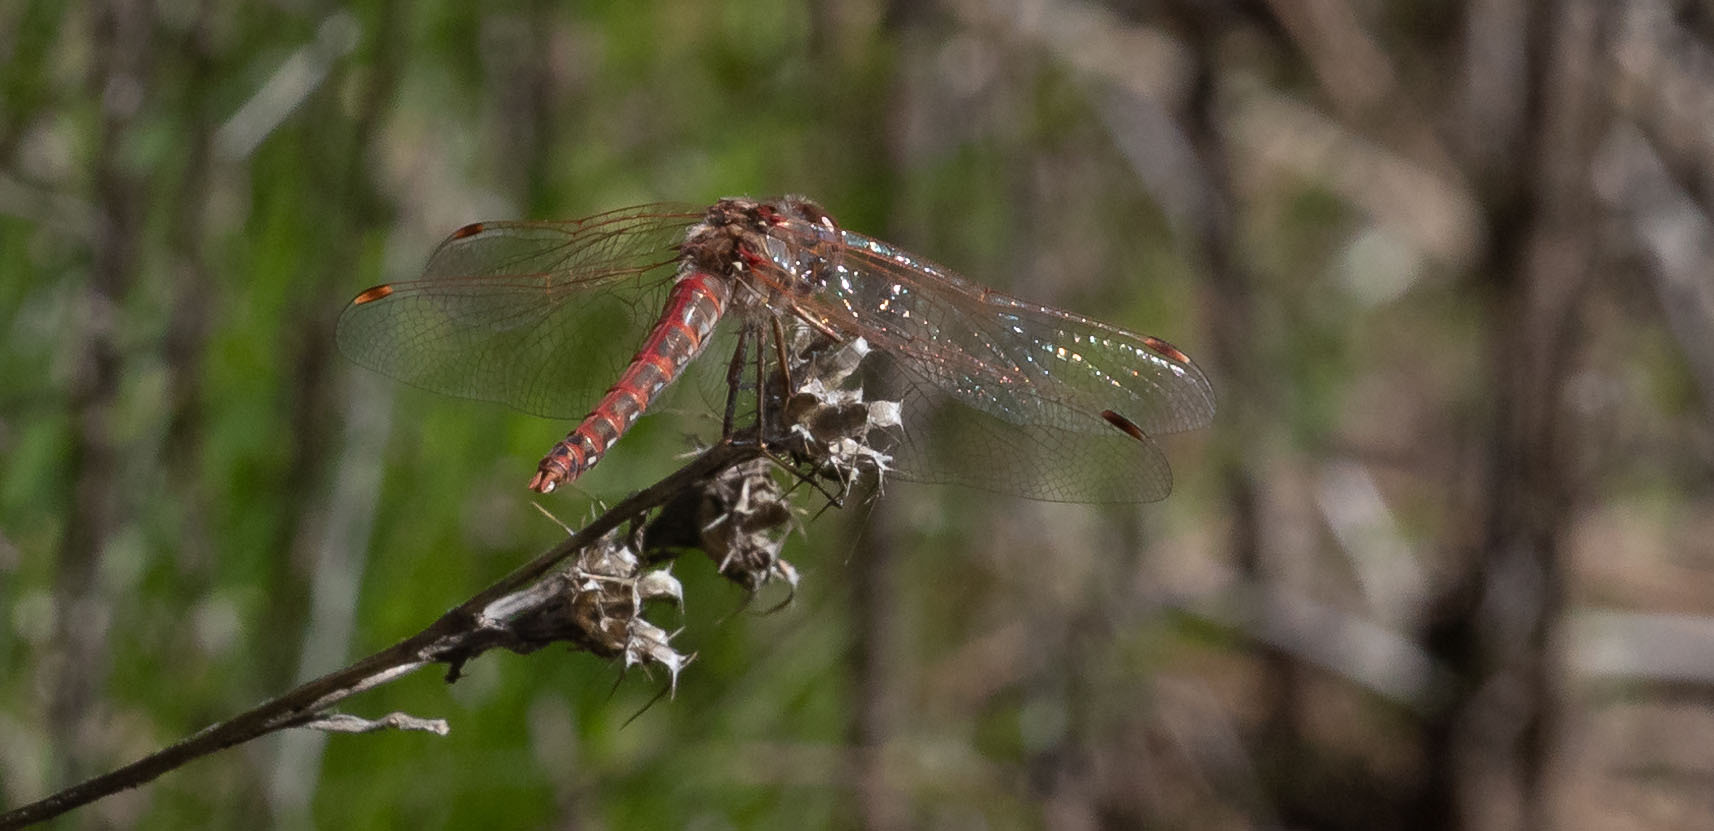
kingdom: Animalia
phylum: Arthropoda
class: Insecta
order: Odonata
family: Libellulidae
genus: Sympetrum
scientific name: Sympetrum corruptum
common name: Variegated meadowhawk
